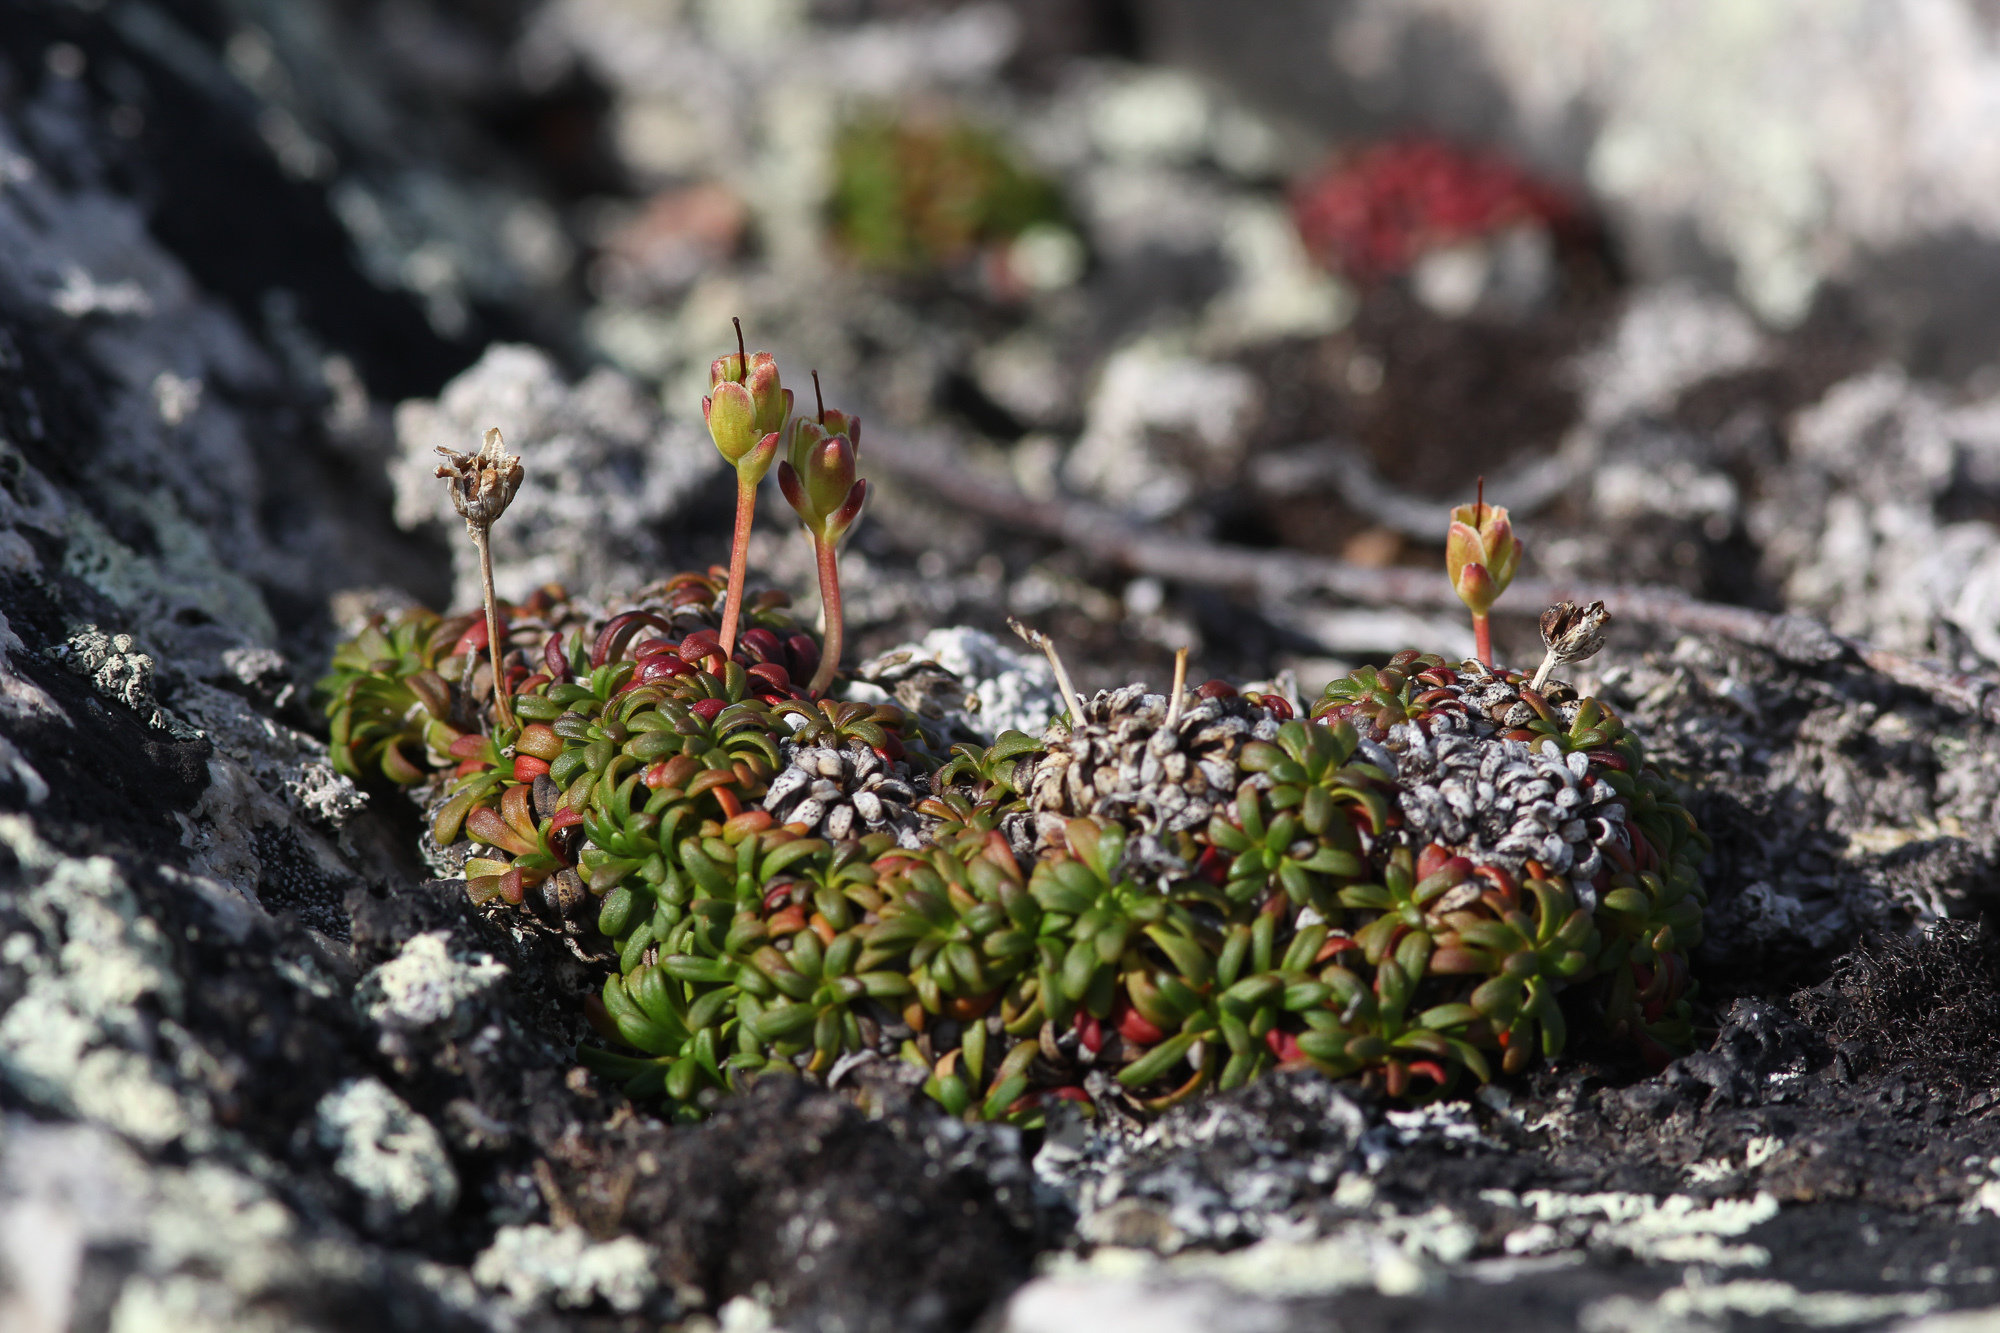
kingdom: Plantae
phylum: Tracheophyta
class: Magnoliopsida
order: Ericales
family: Diapensiaceae
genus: Diapensia
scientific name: Diapensia lapponica
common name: Diapensia
